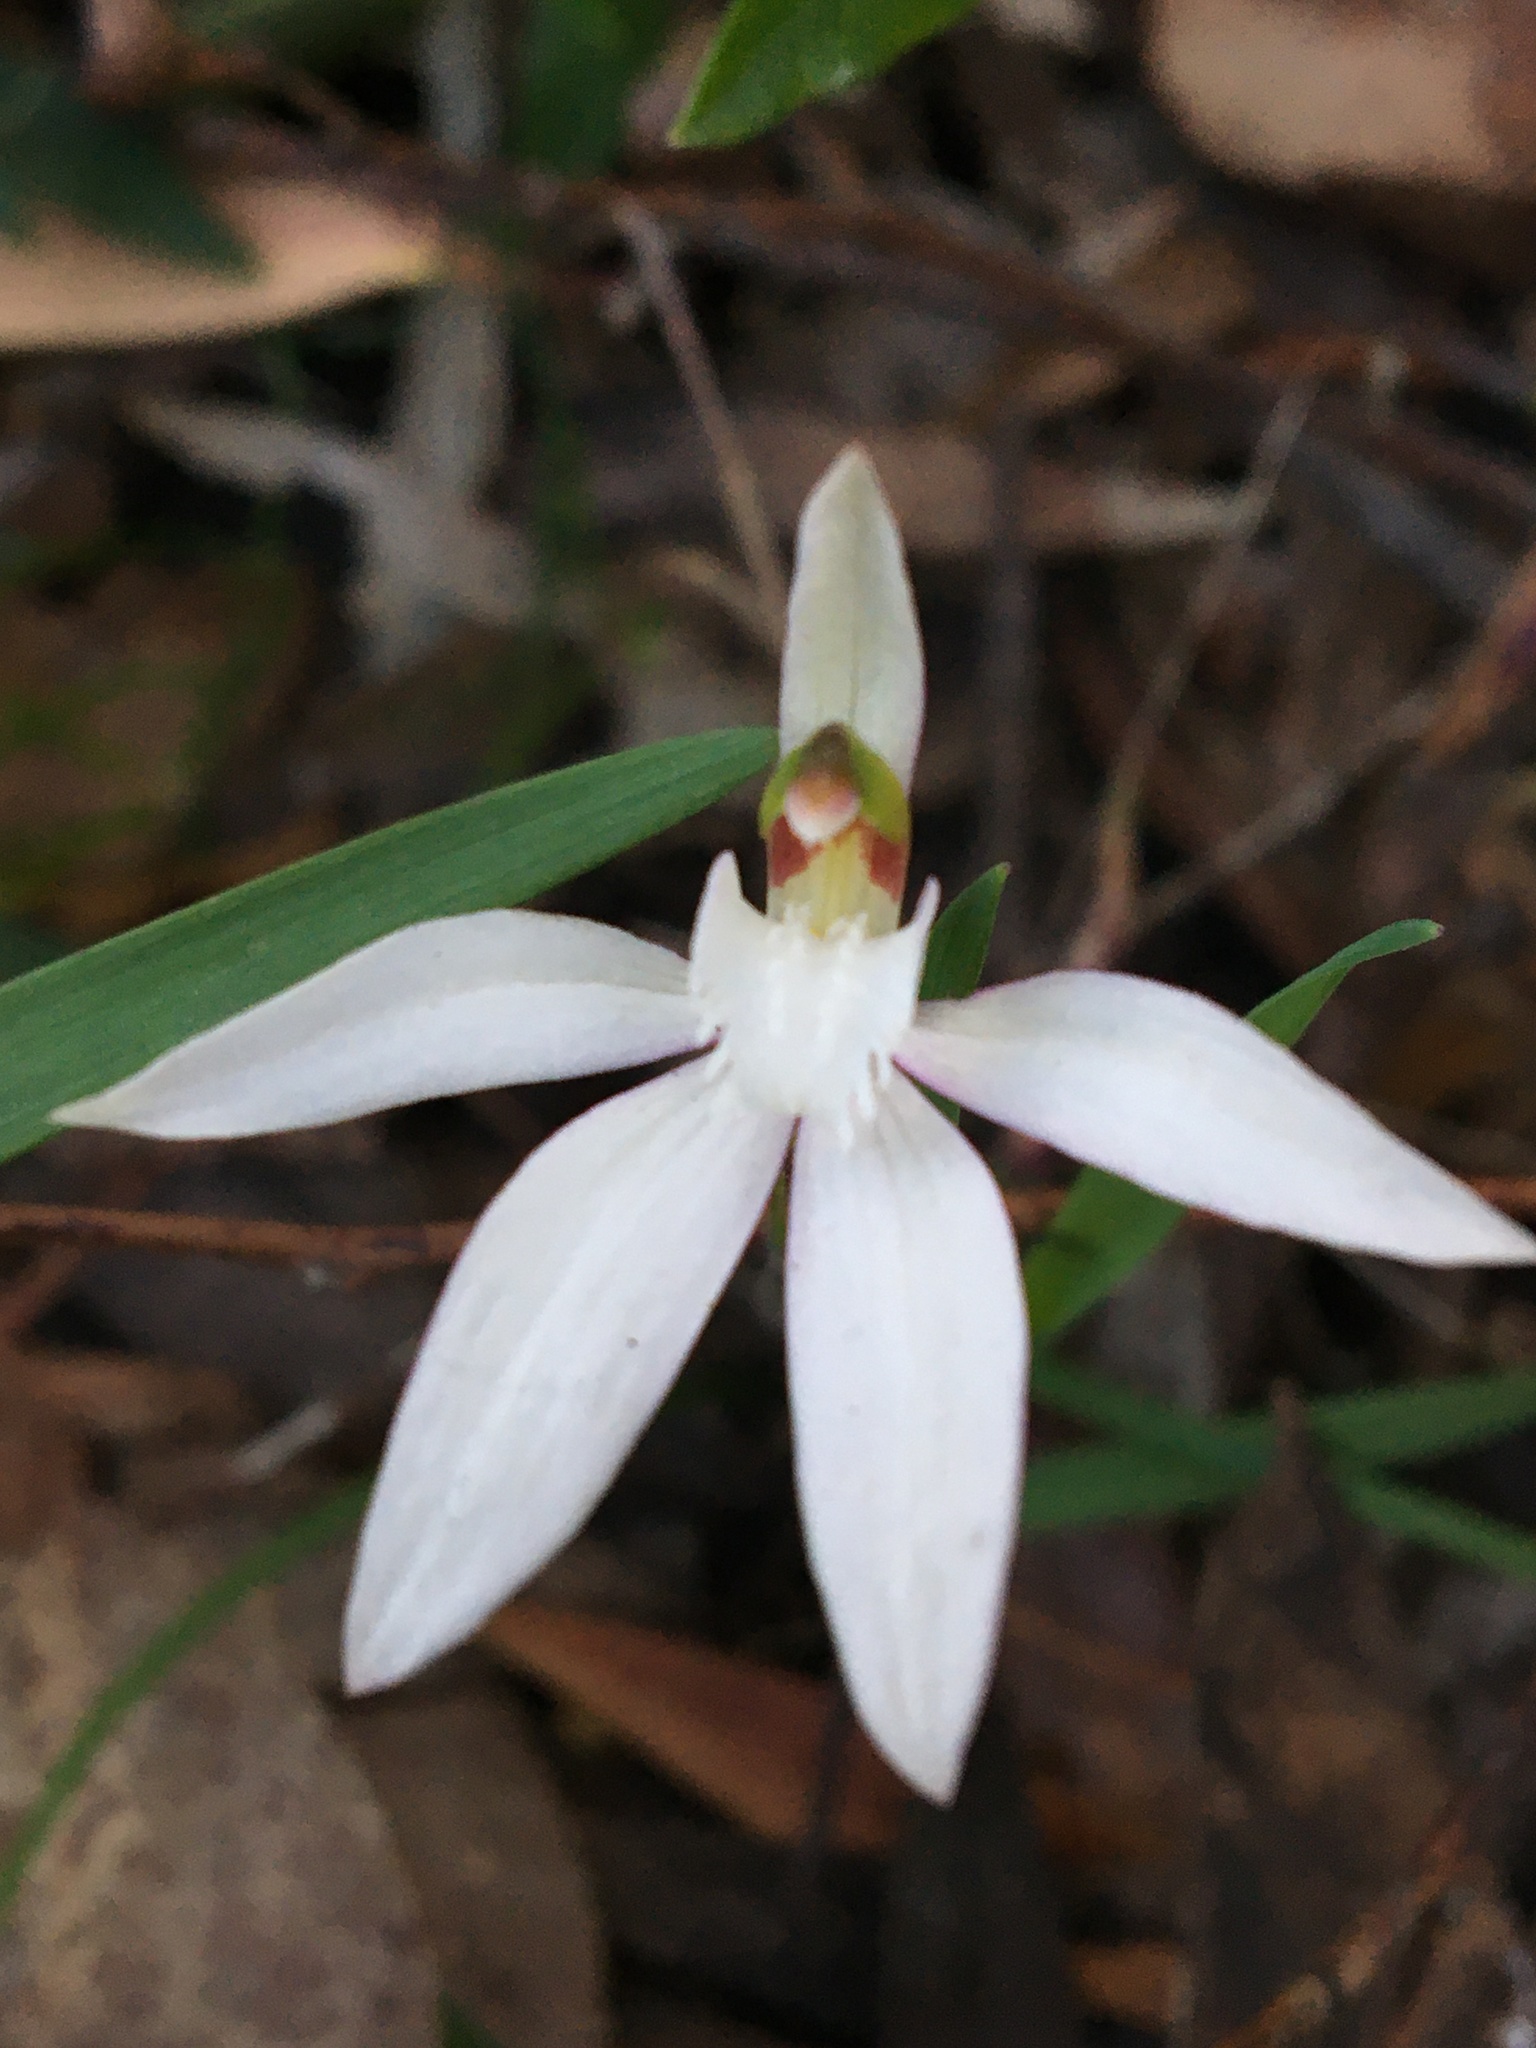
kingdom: Plantae
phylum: Tracheophyta
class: Liliopsida
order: Asparagales
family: Orchidaceae
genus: Caladenia
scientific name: Caladenia catenata
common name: White caladenia
